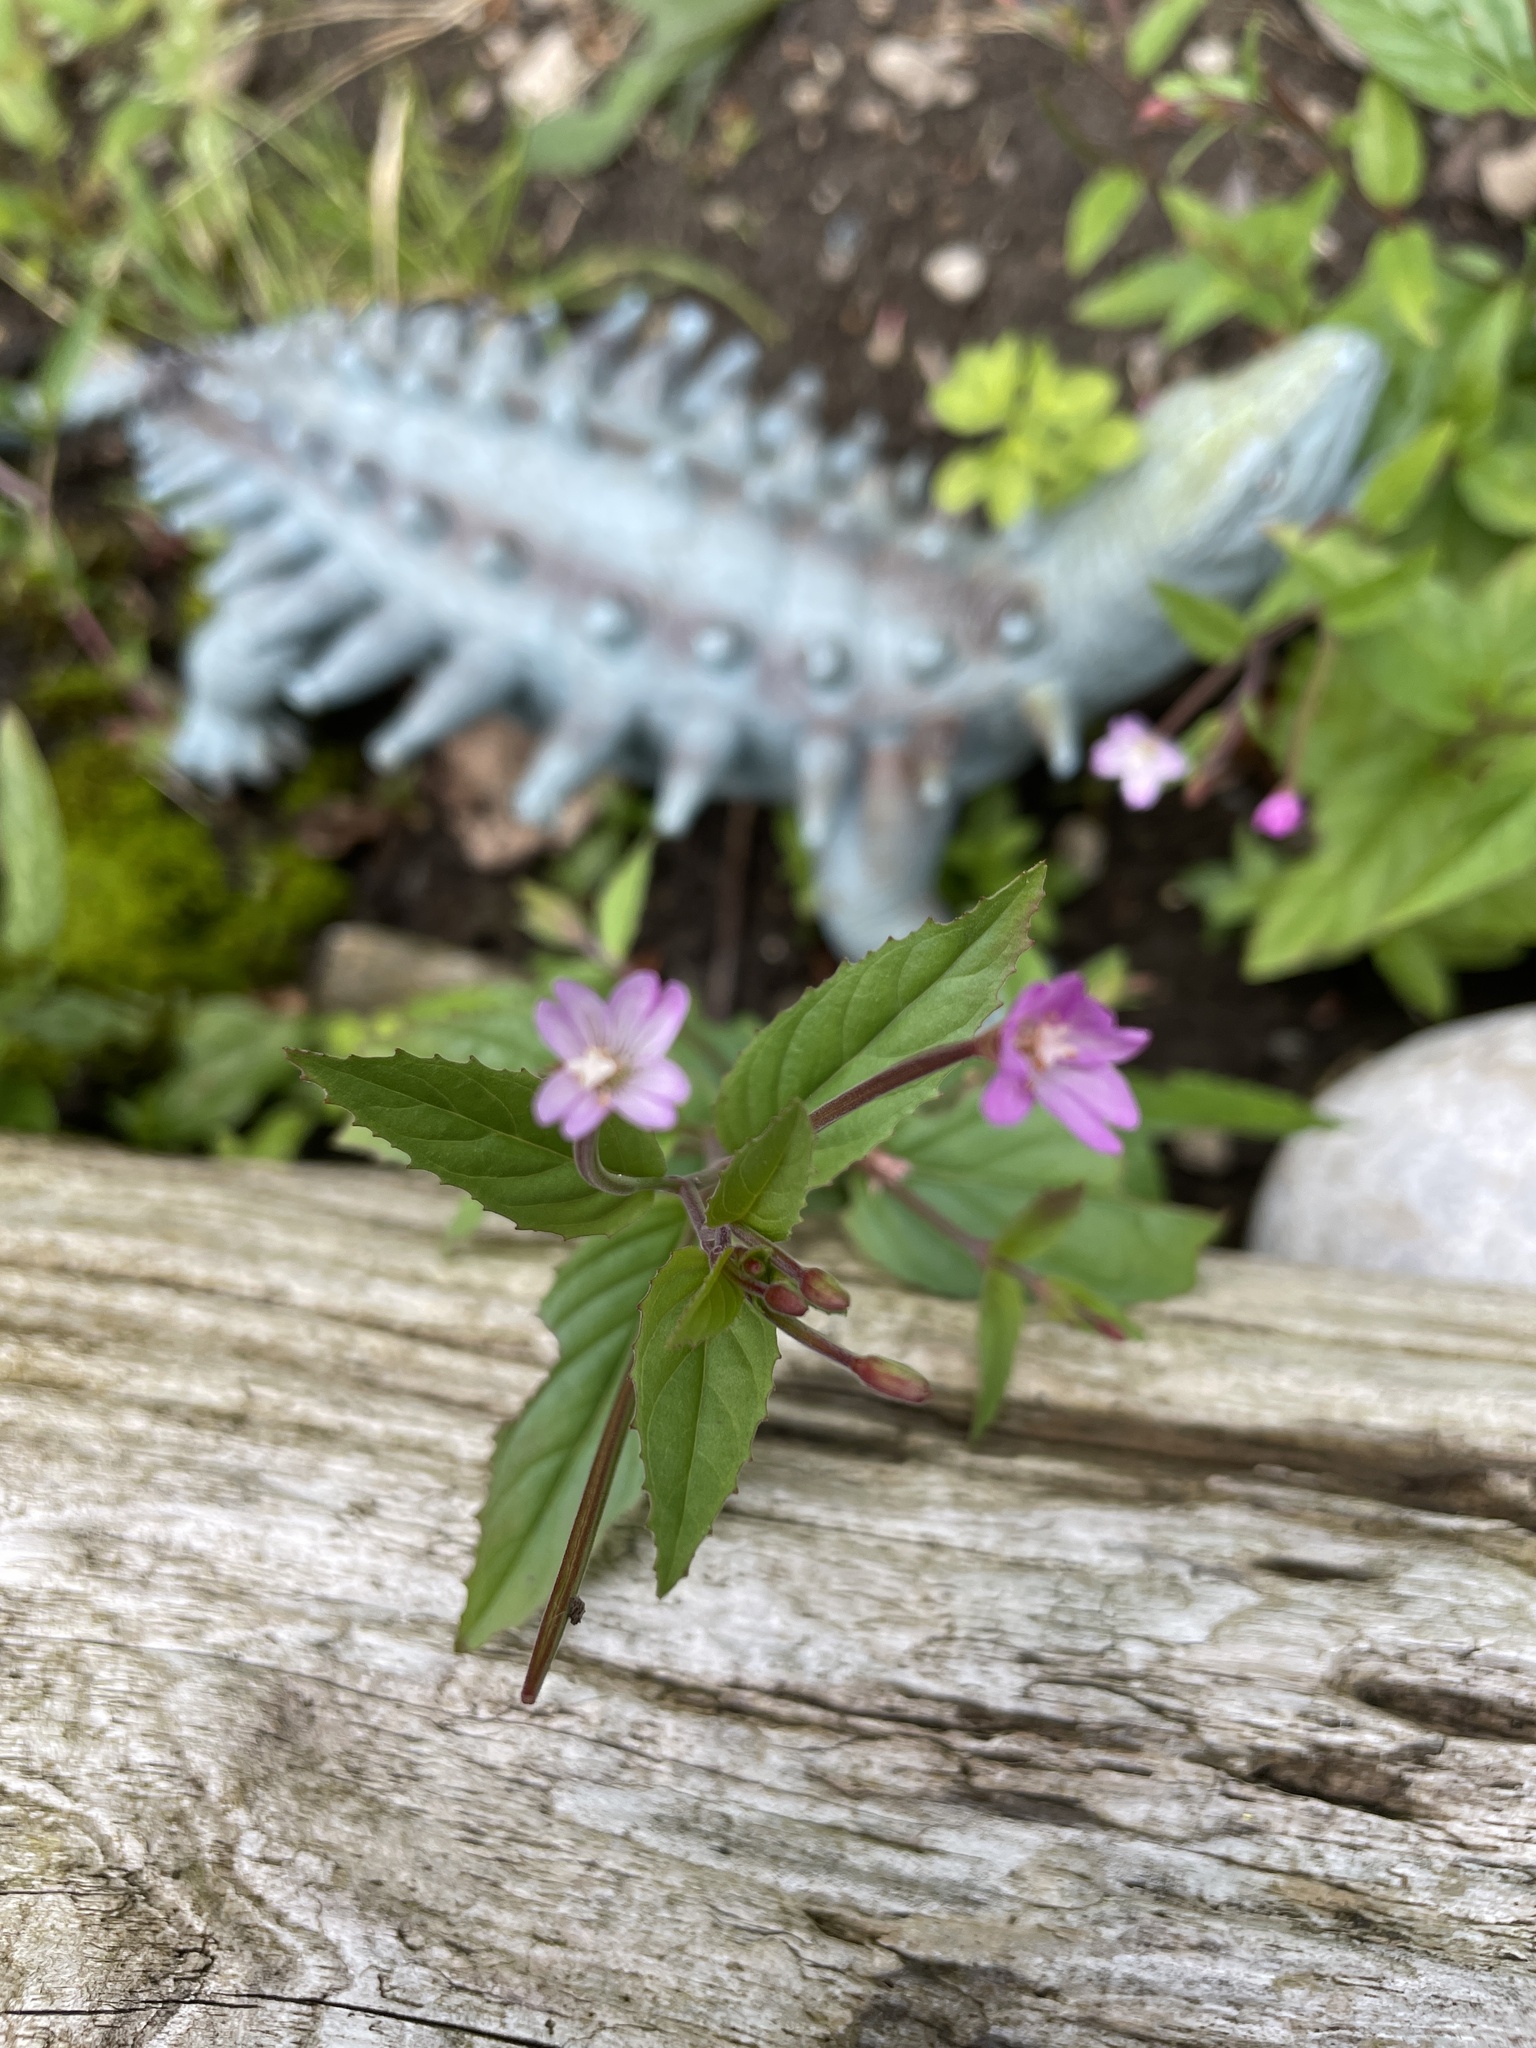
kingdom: Plantae
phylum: Tracheophyta
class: Magnoliopsida
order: Myrtales
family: Onagraceae
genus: Epilobium
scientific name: Epilobium montanum
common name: Broad-leaved willowherb
